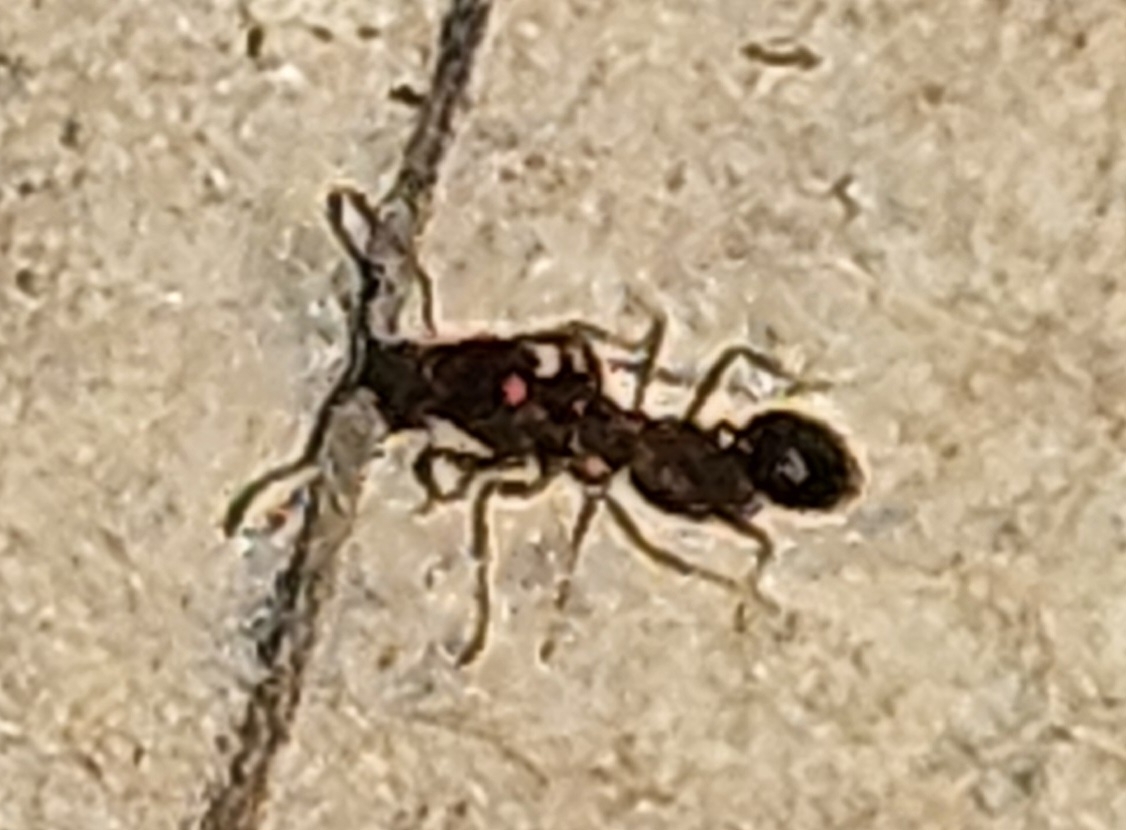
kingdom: Animalia
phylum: Arthropoda
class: Insecta
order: Hymenoptera
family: Formicidae
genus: Solenopsis
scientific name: Solenopsis
